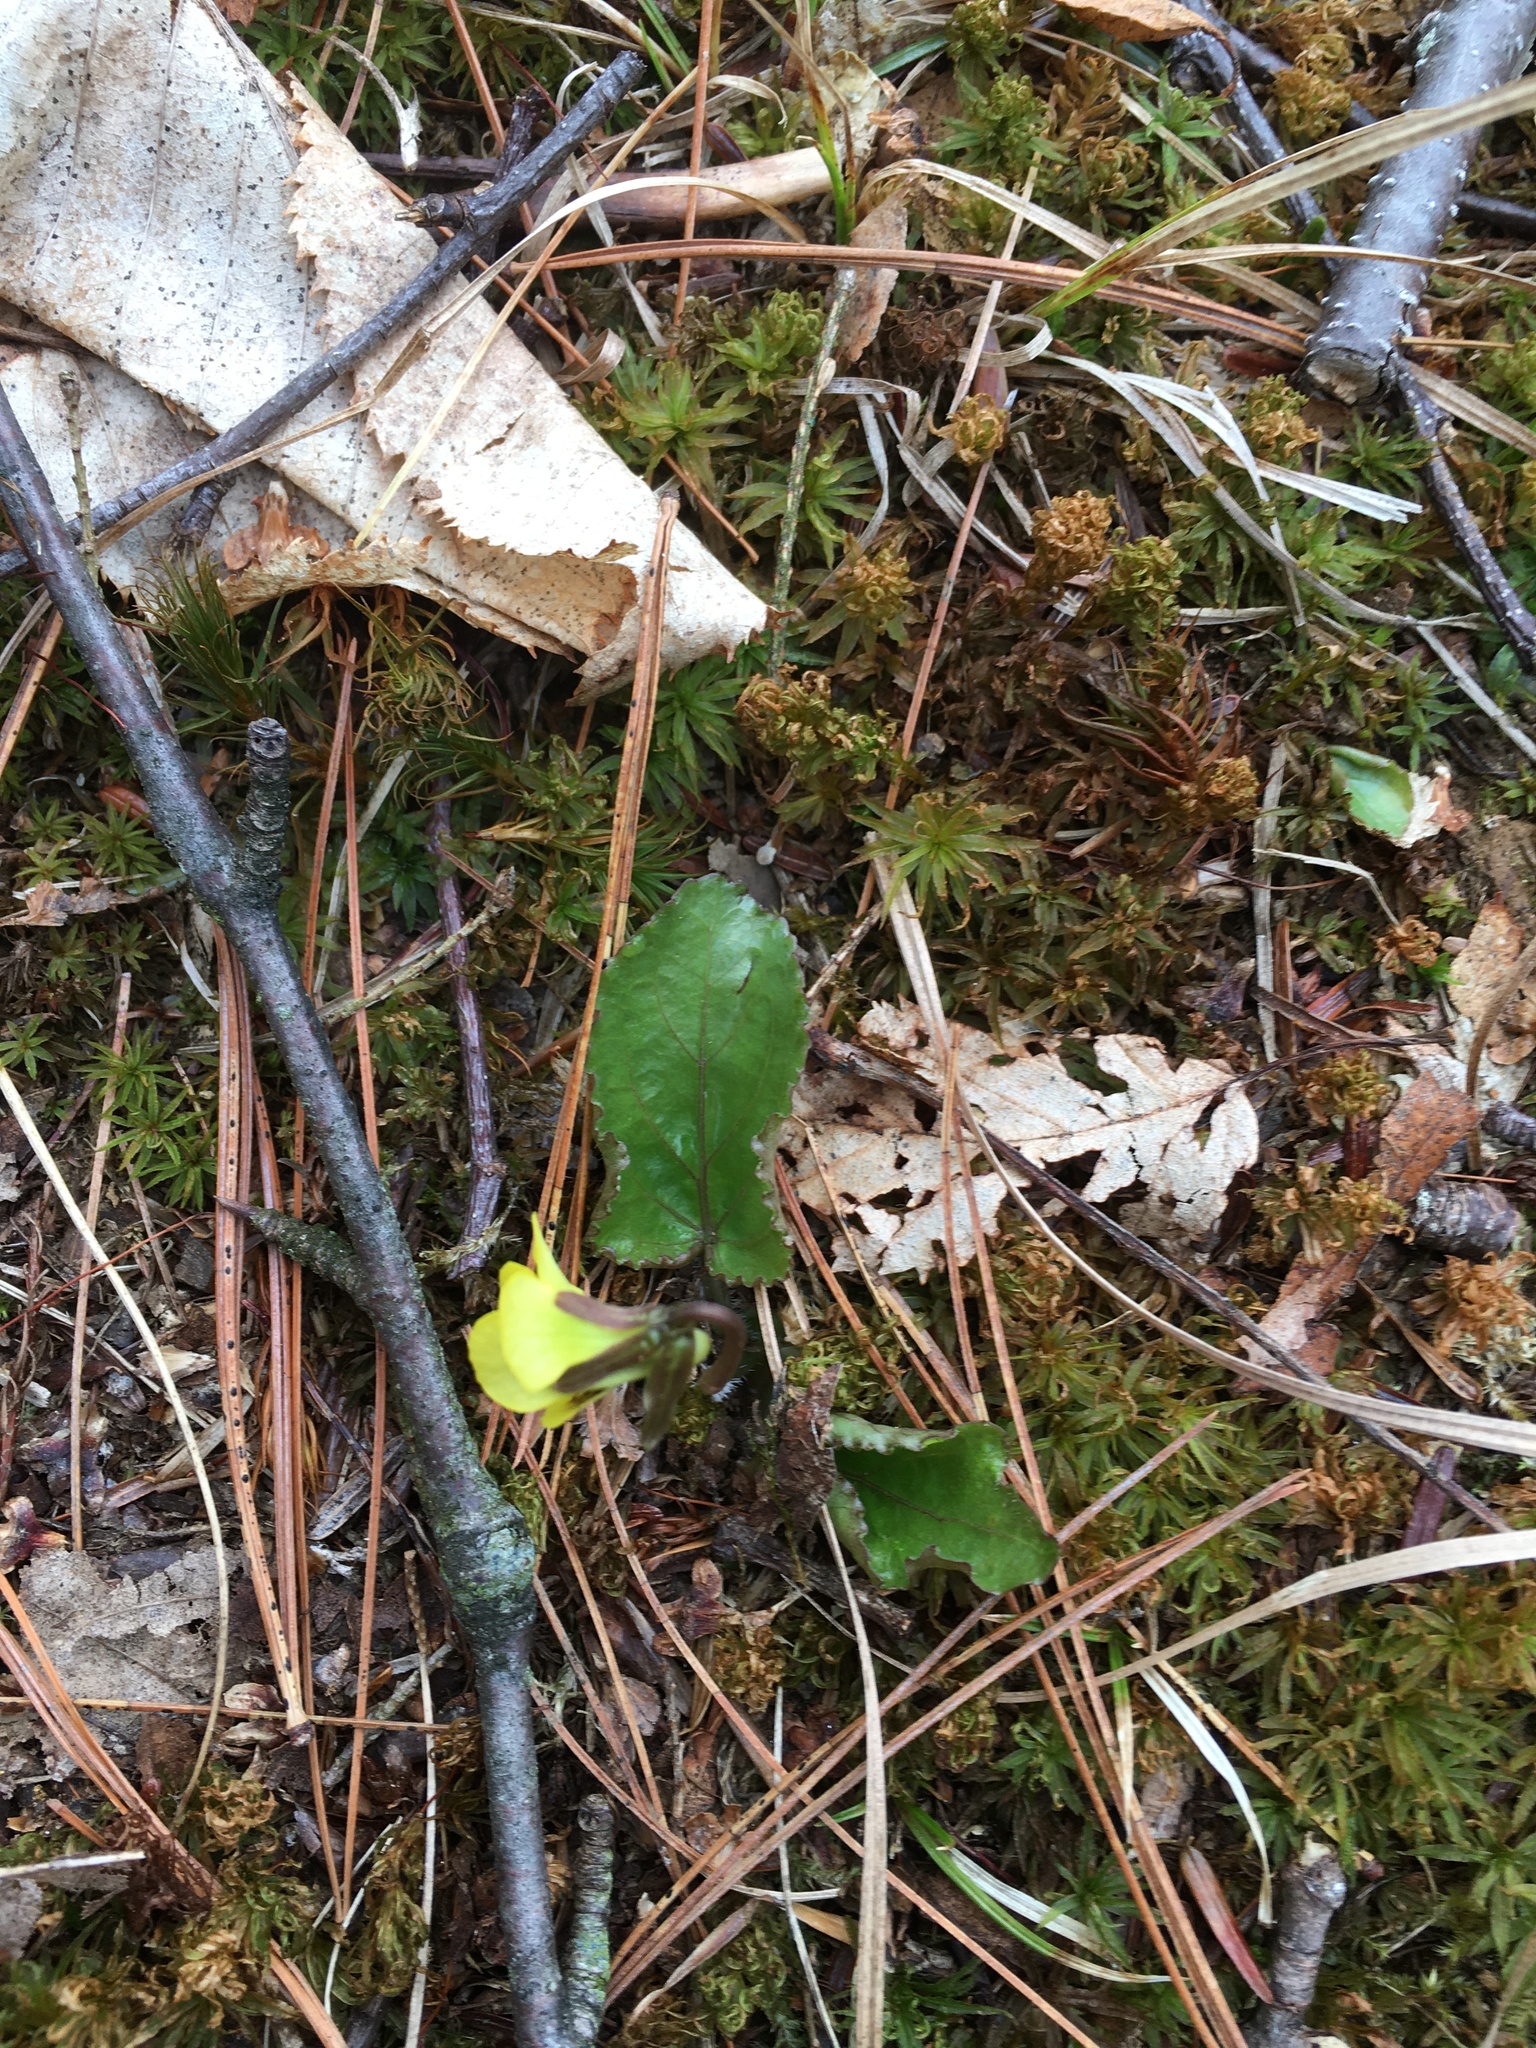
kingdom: Plantae
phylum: Tracheophyta
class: Magnoliopsida
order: Malpighiales
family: Violaceae
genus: Viola
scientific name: Viola rotundifolia
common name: Early yellow violet
